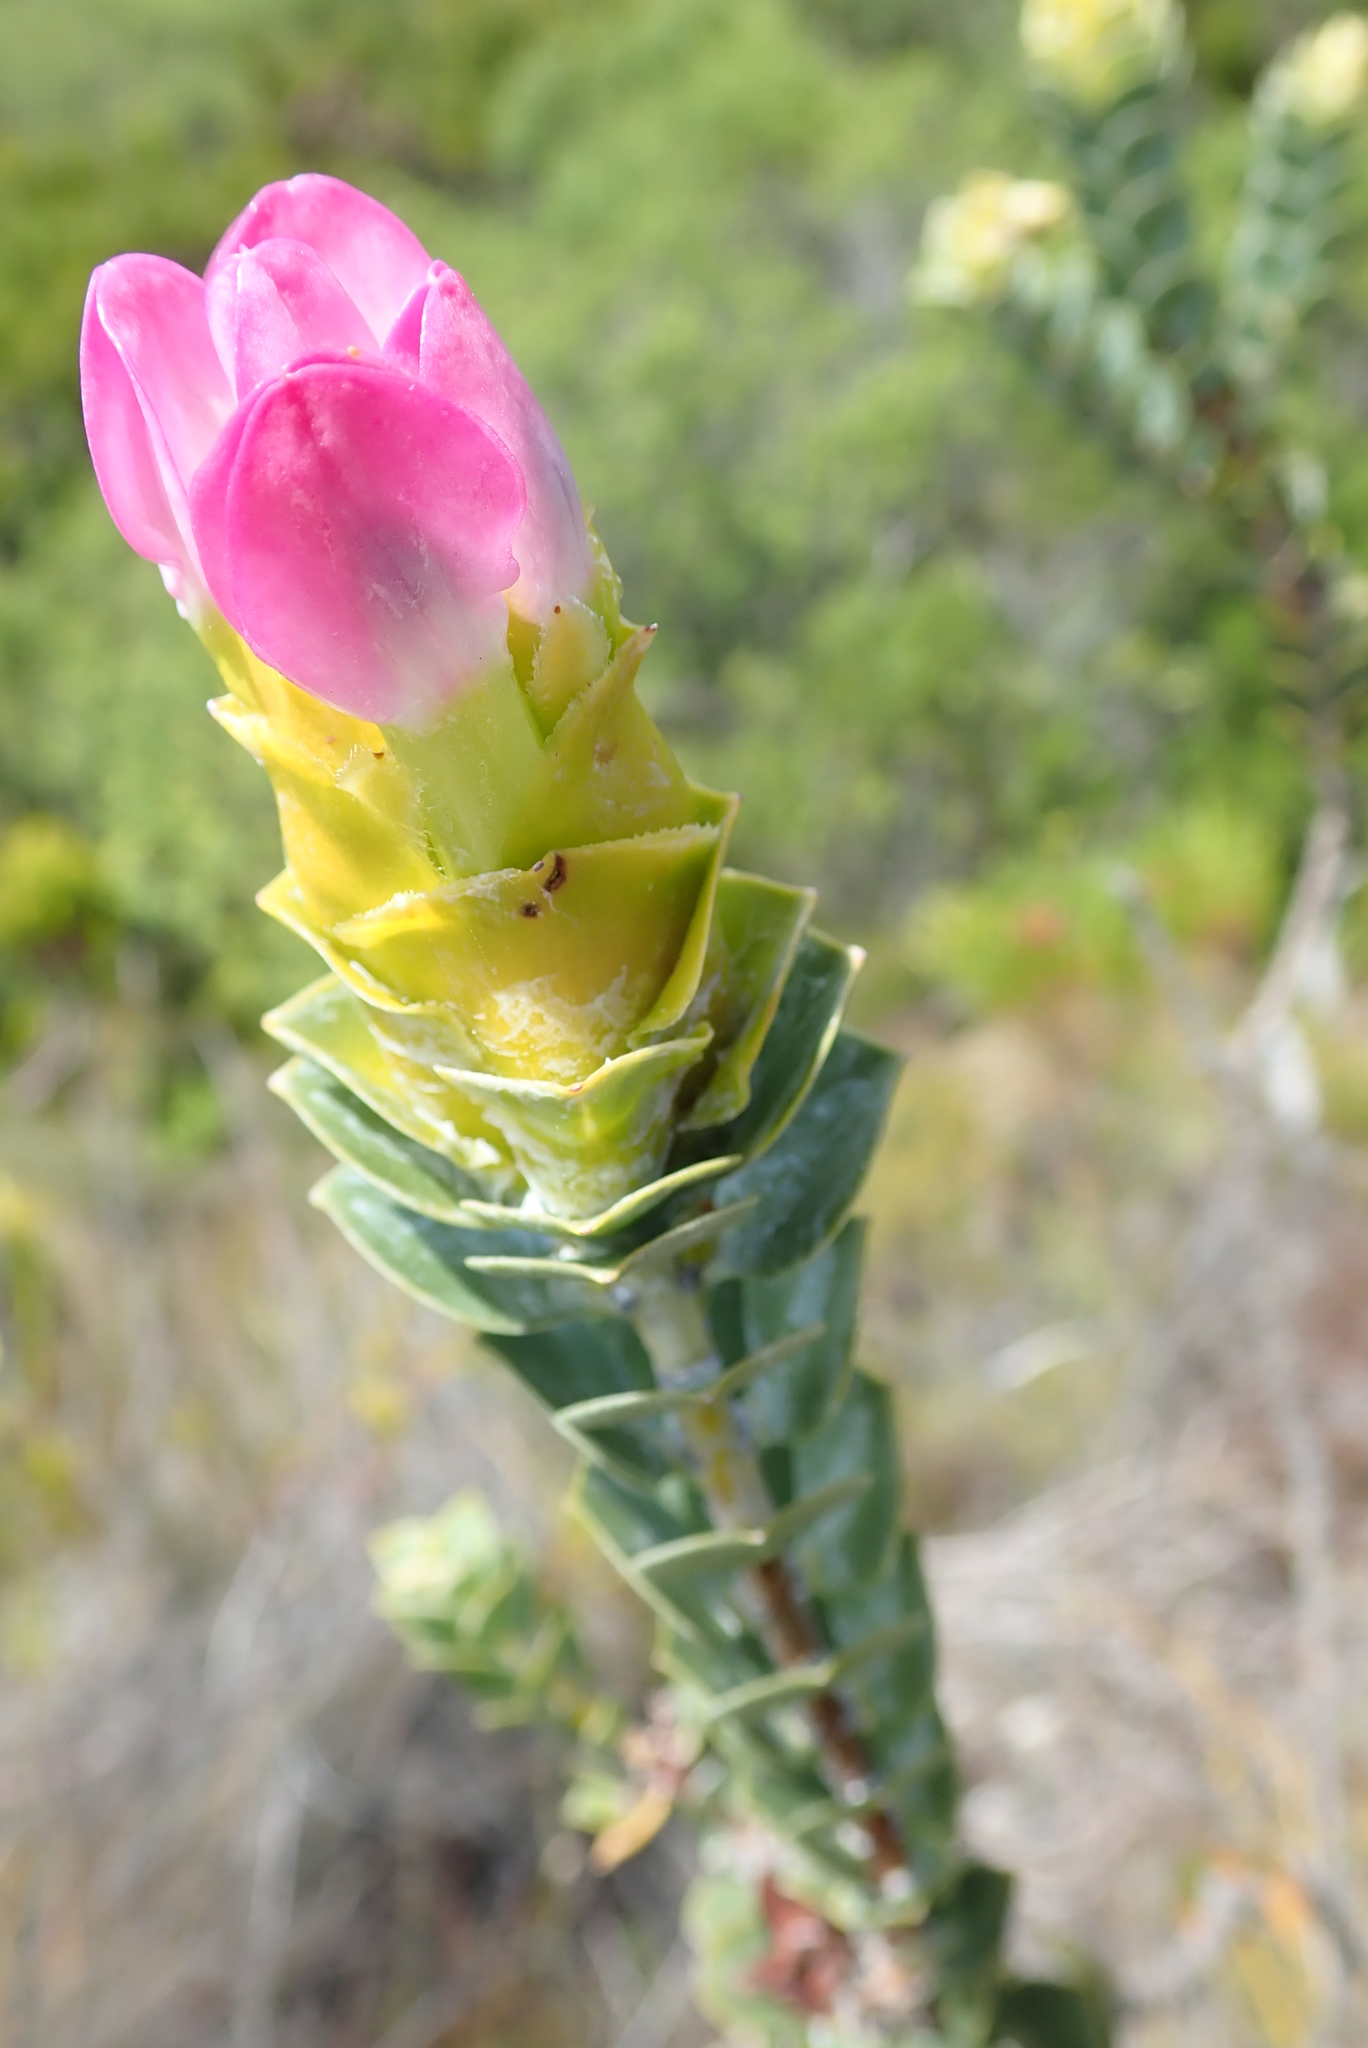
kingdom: Plantae
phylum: Tracheophyta
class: Magnoliopsida
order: Myrtales
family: Penaeaceae
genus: Saltera
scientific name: Saltera sarcocolla
